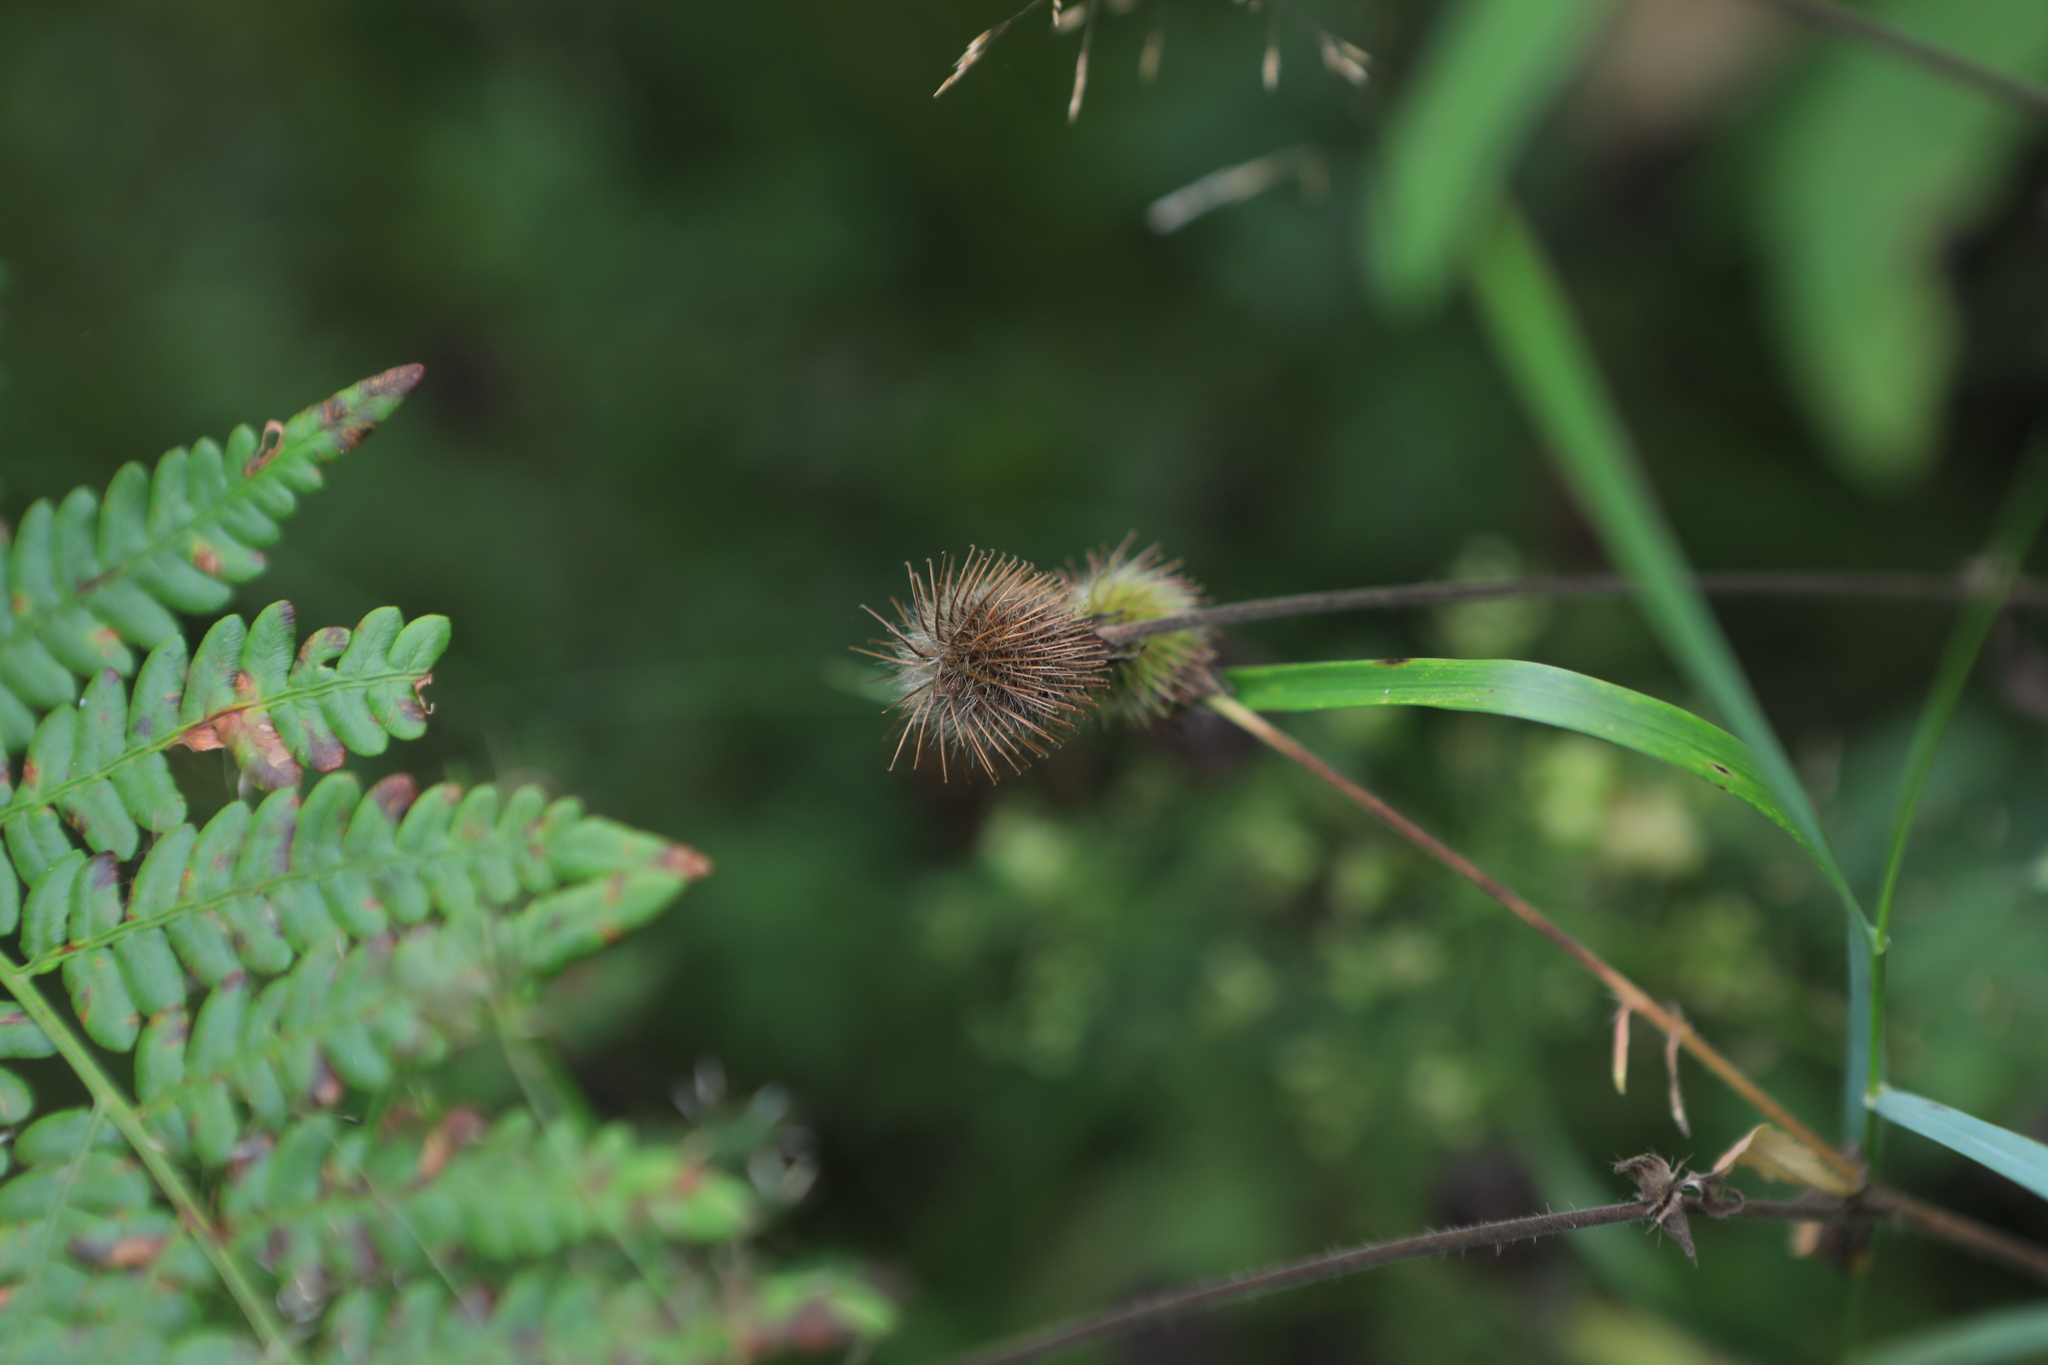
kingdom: Plantae
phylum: Tracheophyta
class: Magnoliopsida
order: Rosales
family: Rosaceae
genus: Geum
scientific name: Geum aleppicum
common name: Yellow avens
